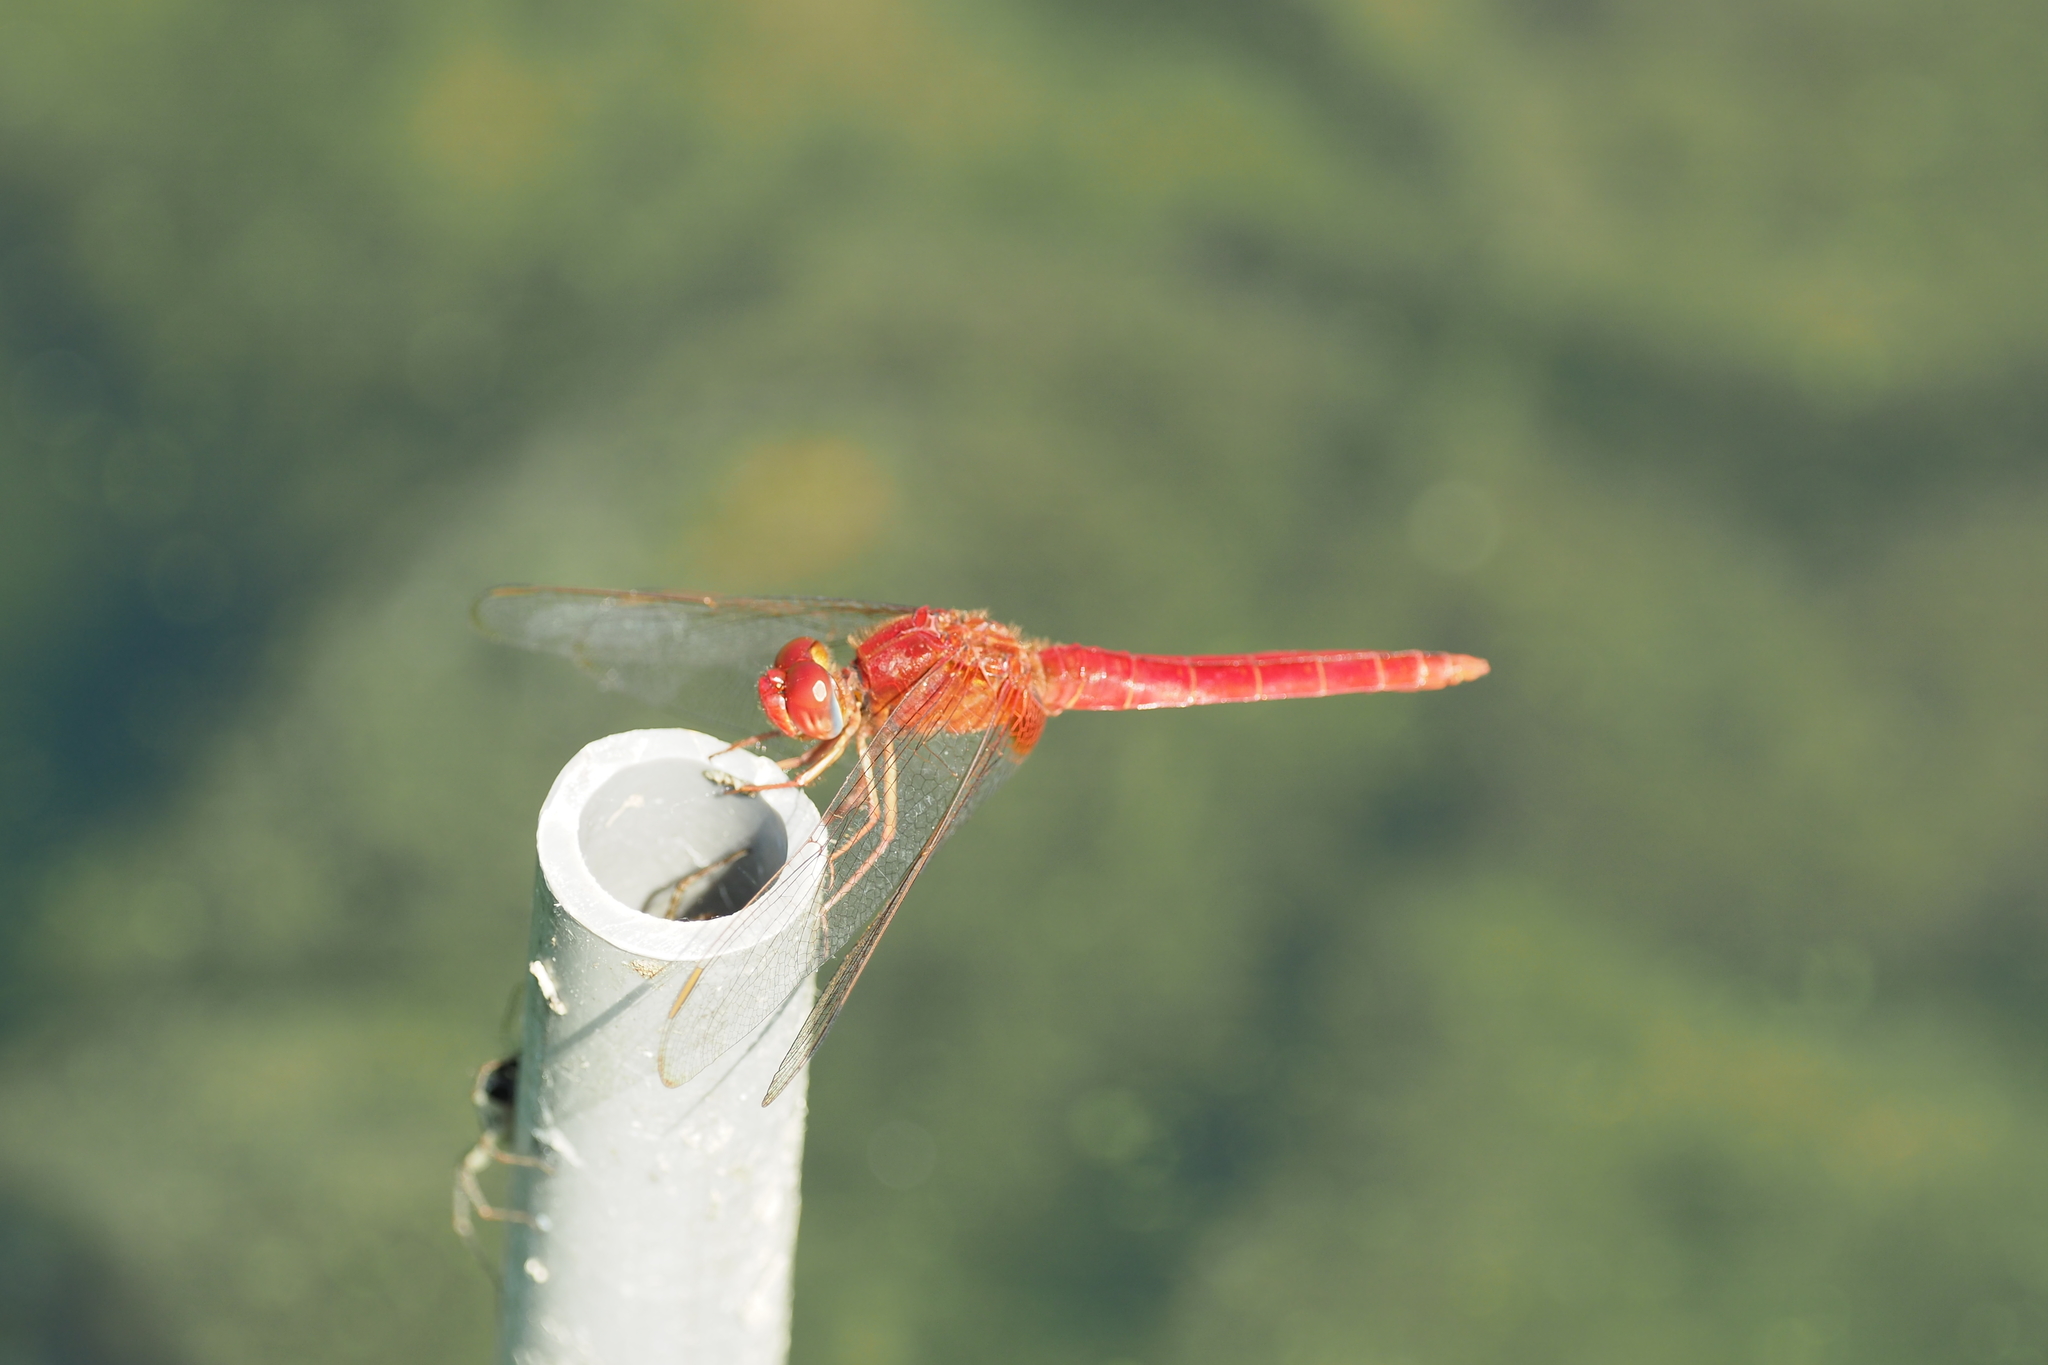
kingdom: Animalia
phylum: Arthropoda
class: Insecta
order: Odonata
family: Libellulidae
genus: Crocothemis
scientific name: Crocothemis servilia
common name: Scarlet skimmer
